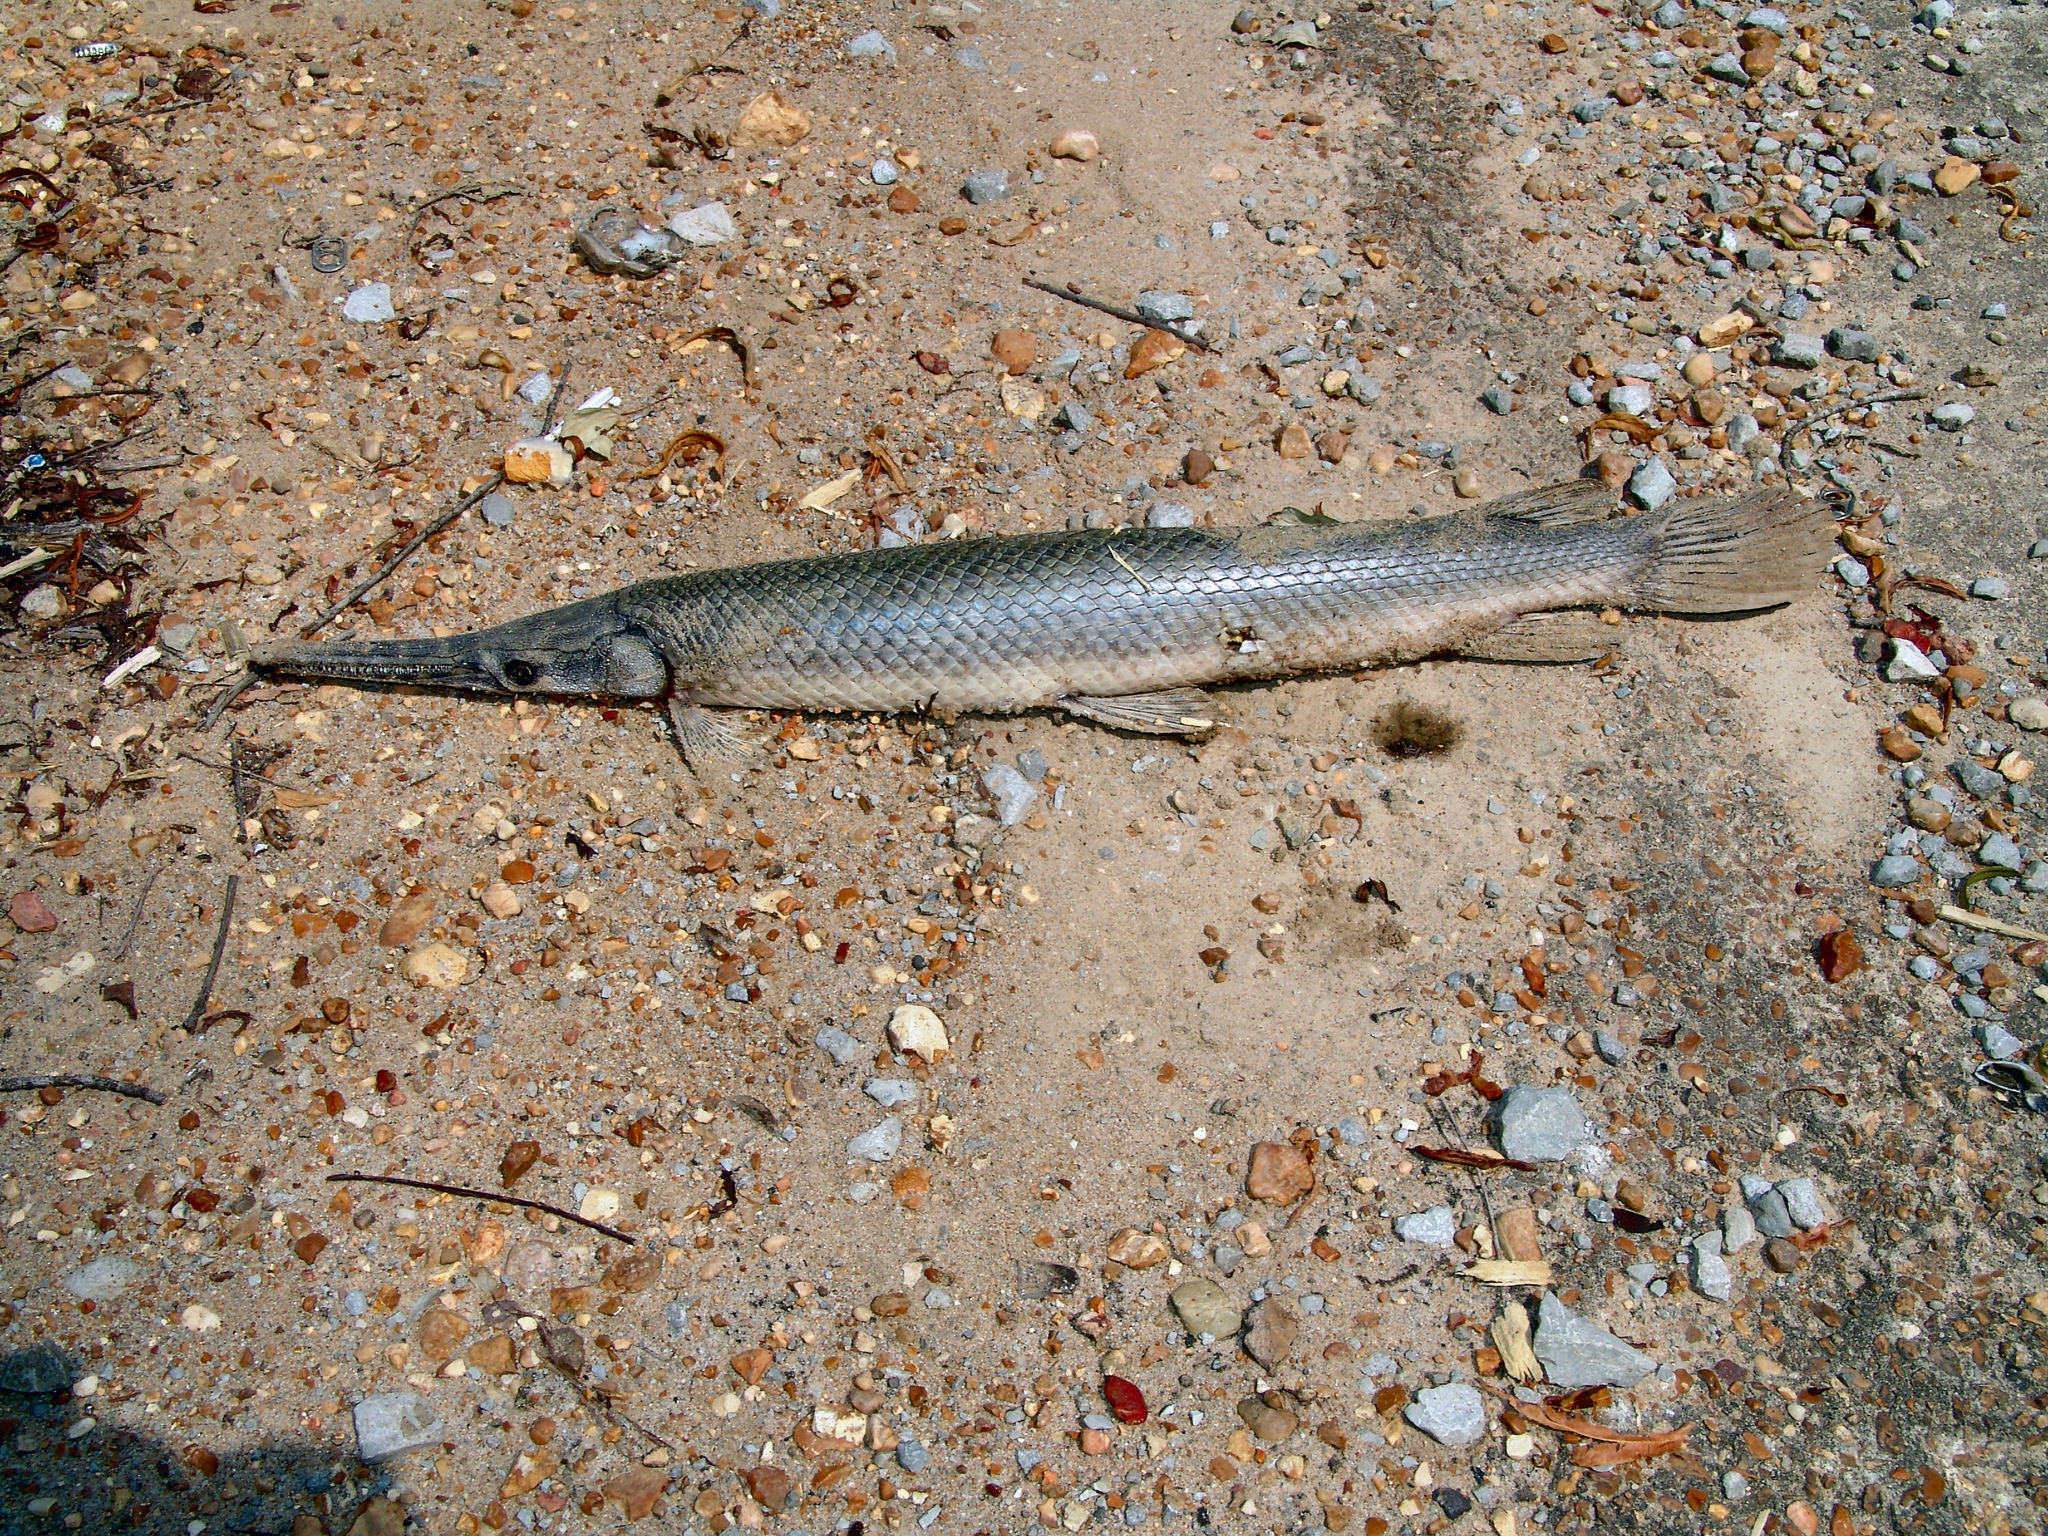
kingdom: Animalia
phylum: Chordata
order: Lepisosteiformes
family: Lepisosteidae
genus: Lepisosteus
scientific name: Lepisosteus oculatus
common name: Spotted gar
